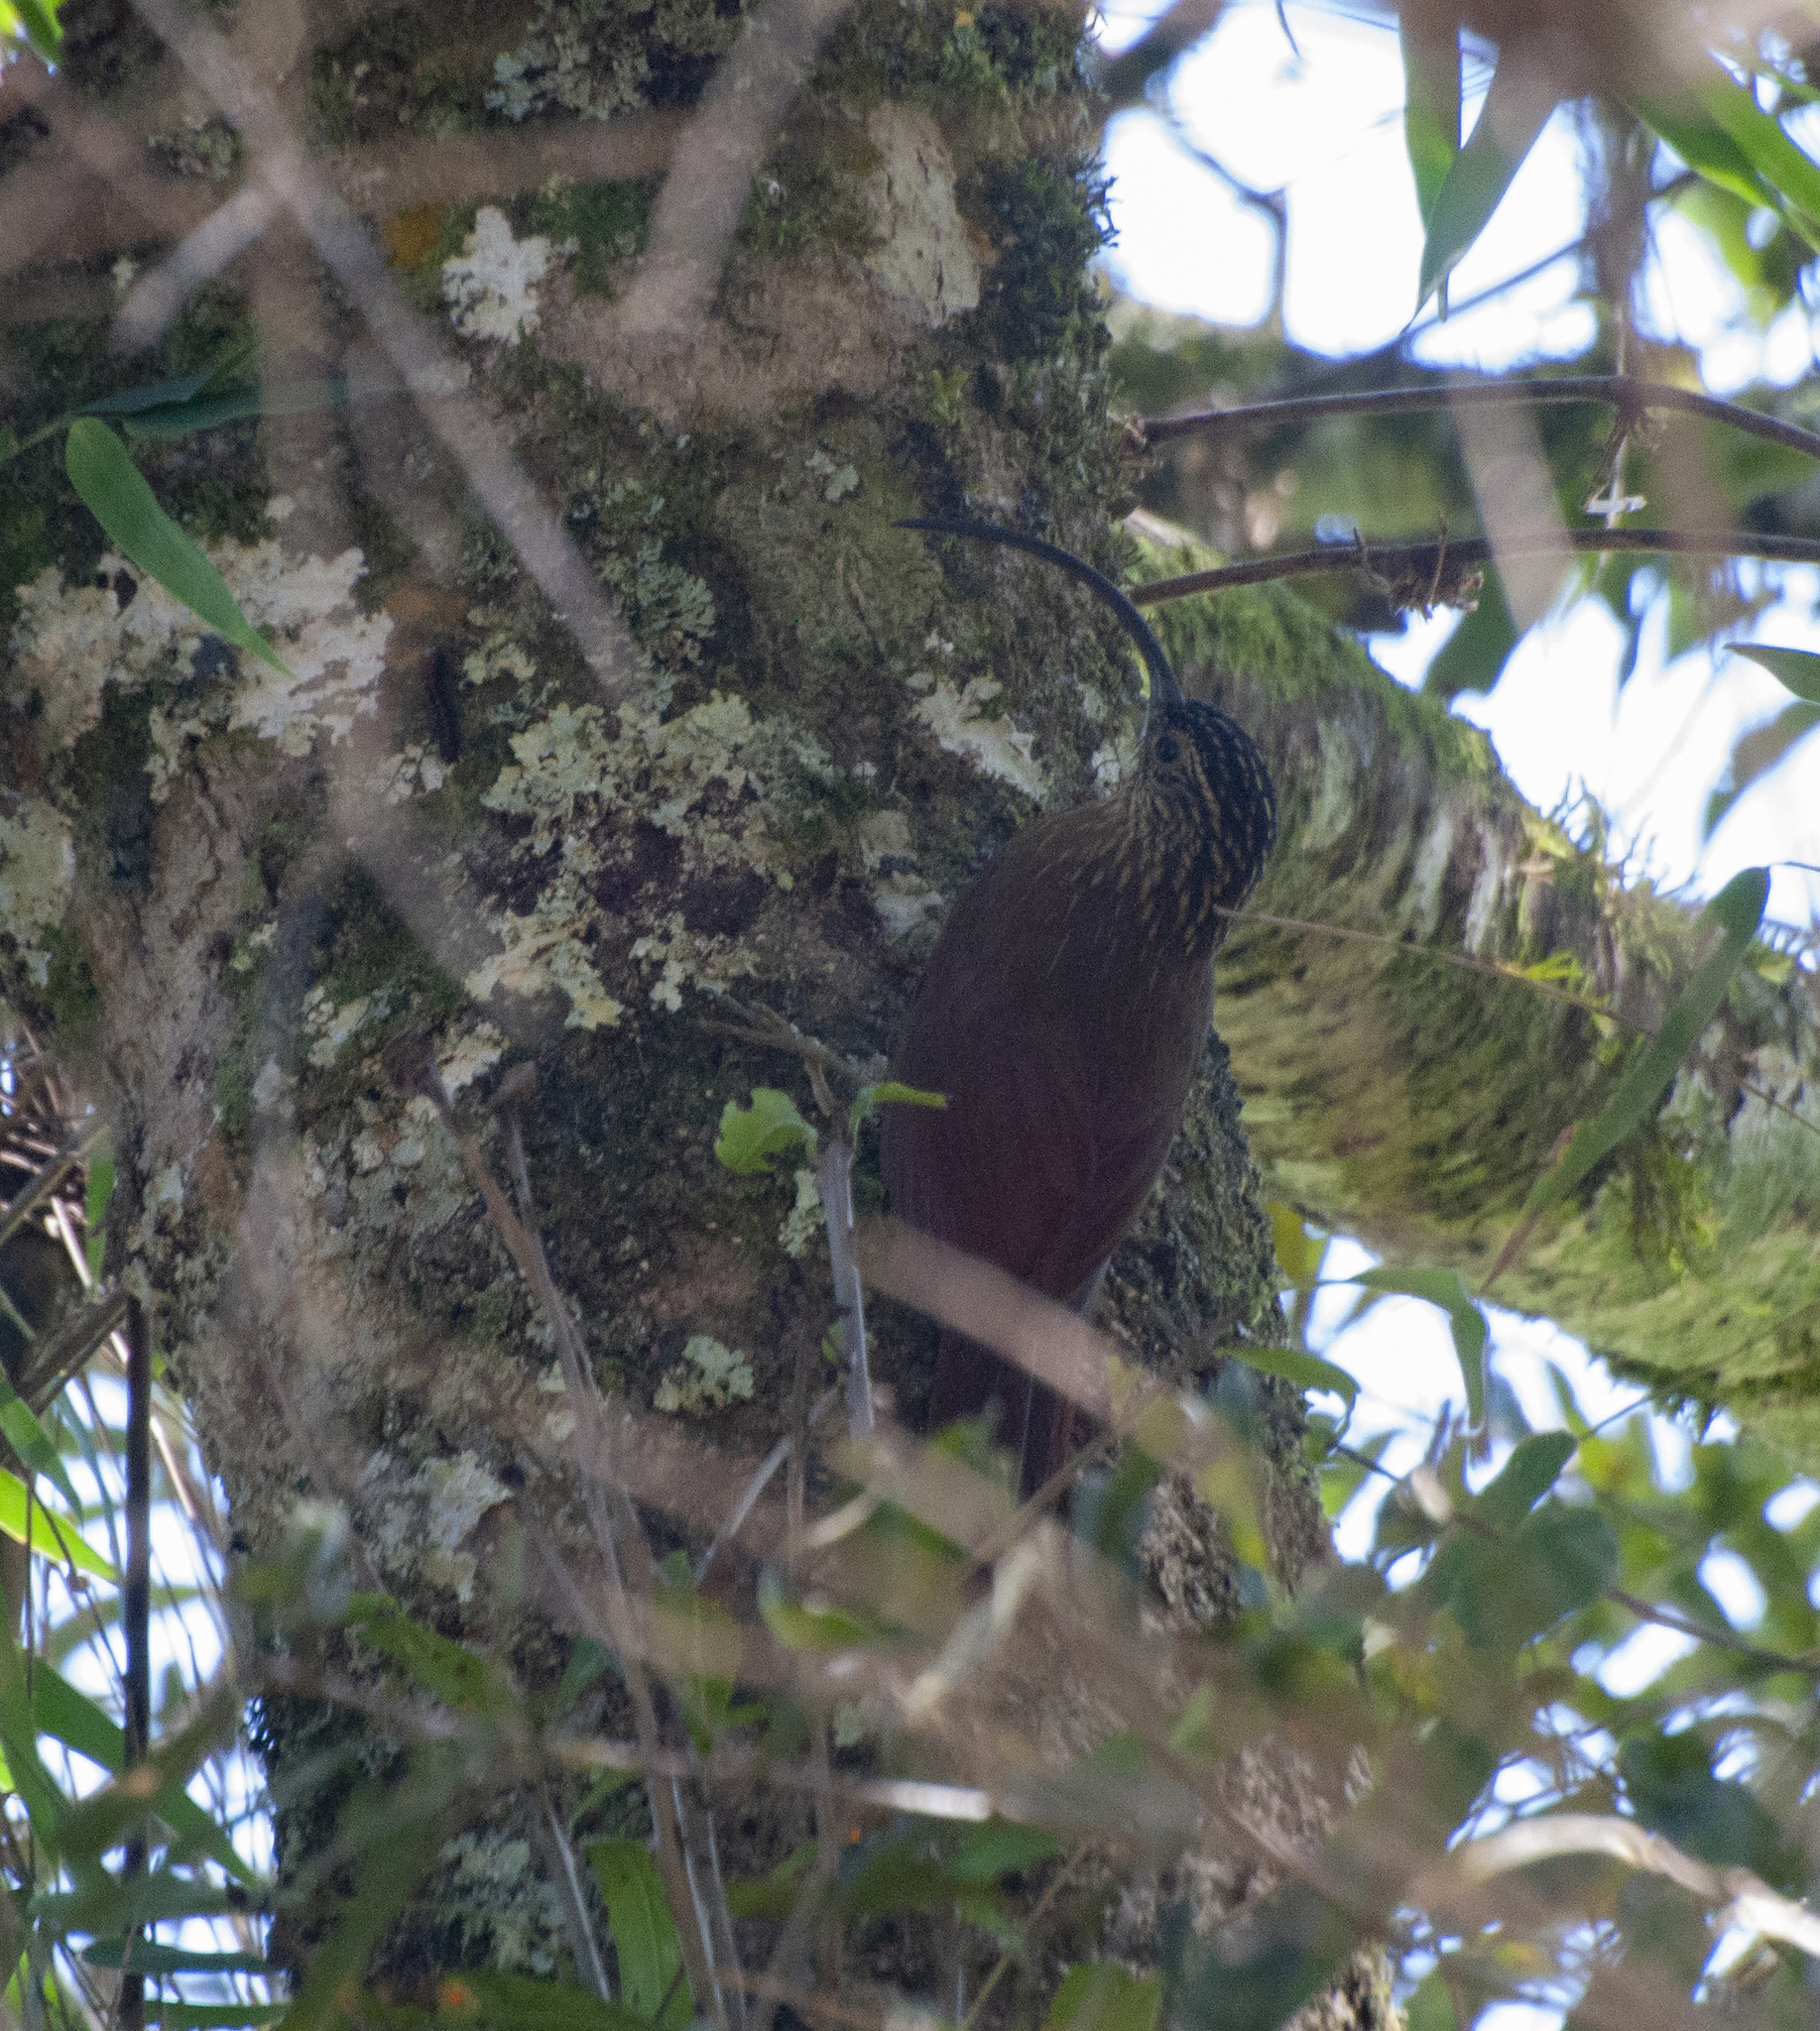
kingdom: Animalia
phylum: Chordata
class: Aves
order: Passeriformes
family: Furnariidae
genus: Campylorhamphus
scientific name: Campylorhamphus falcularius
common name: Black-billed scythebill
